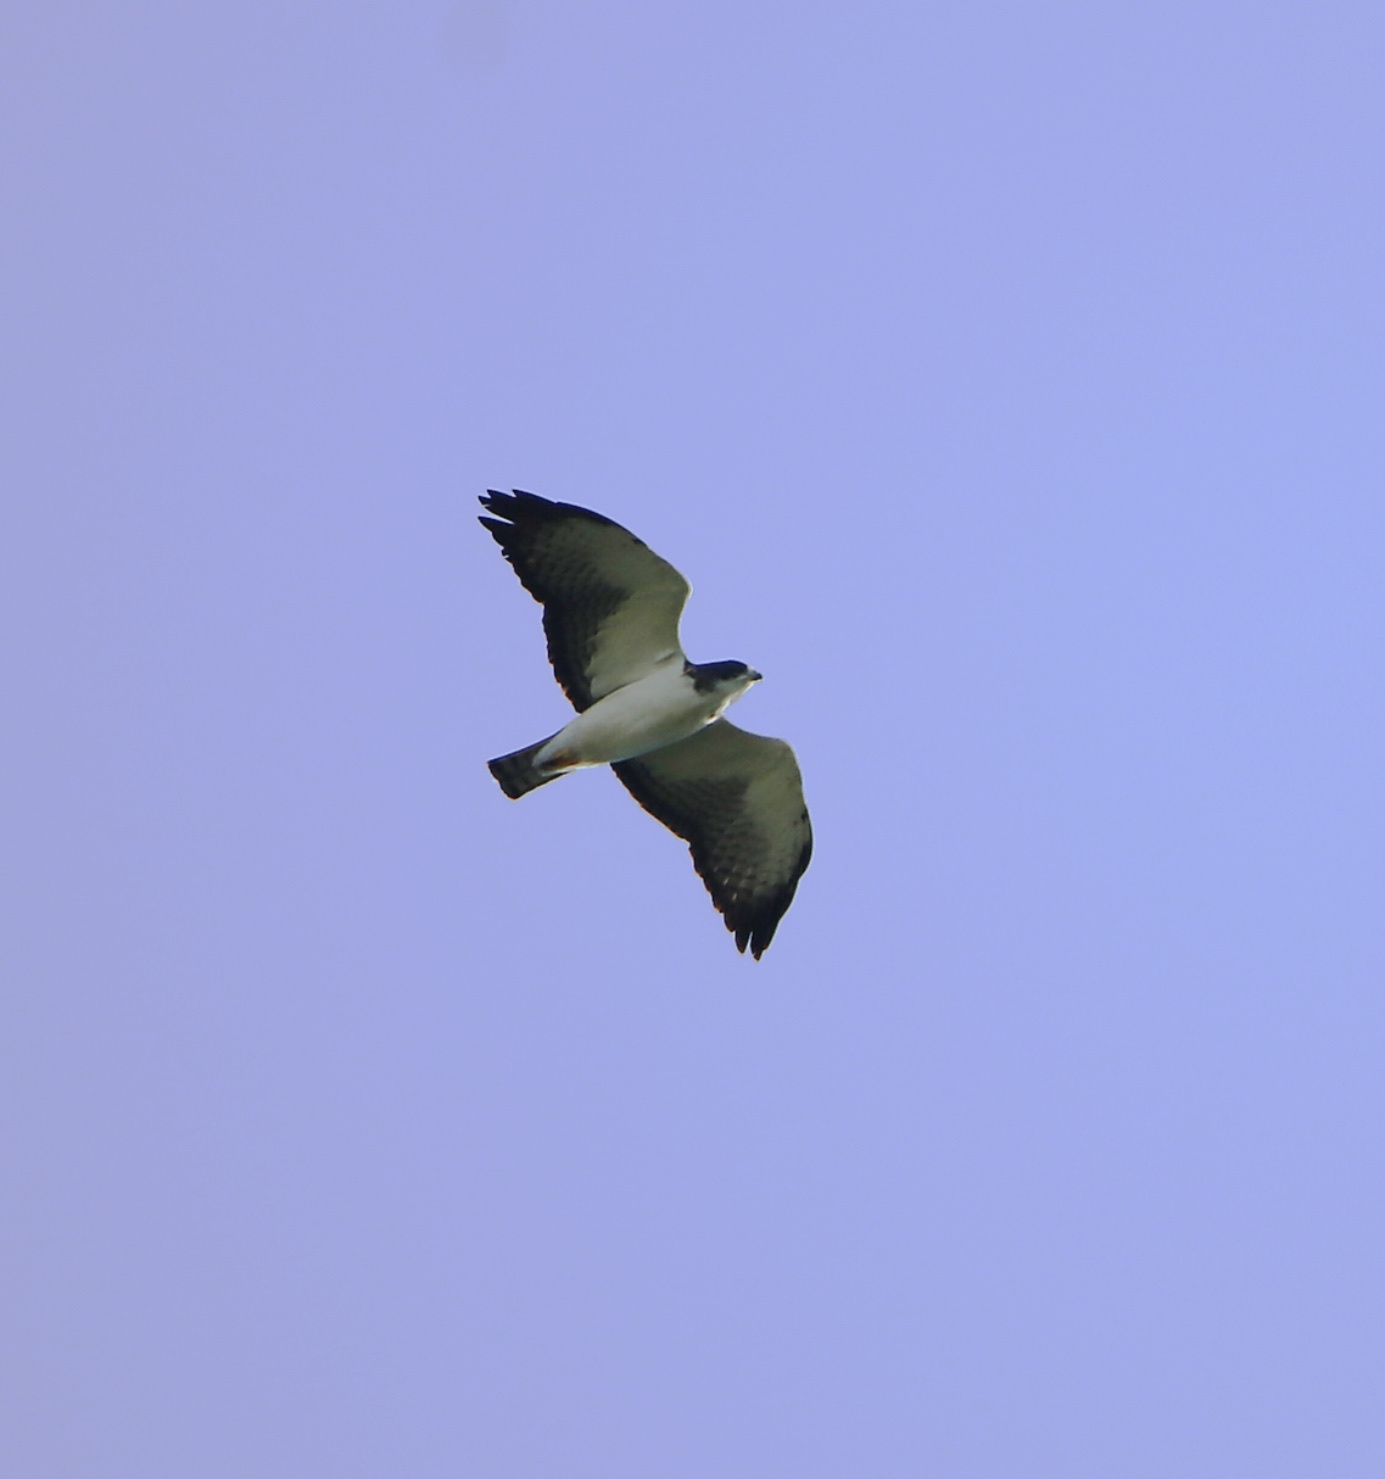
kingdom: Animalia
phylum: Chordata
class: Aves
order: Accipitriformes
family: Accipitridae
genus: Buteo
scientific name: Buteo brachyurus
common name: Short-tailed hawk
